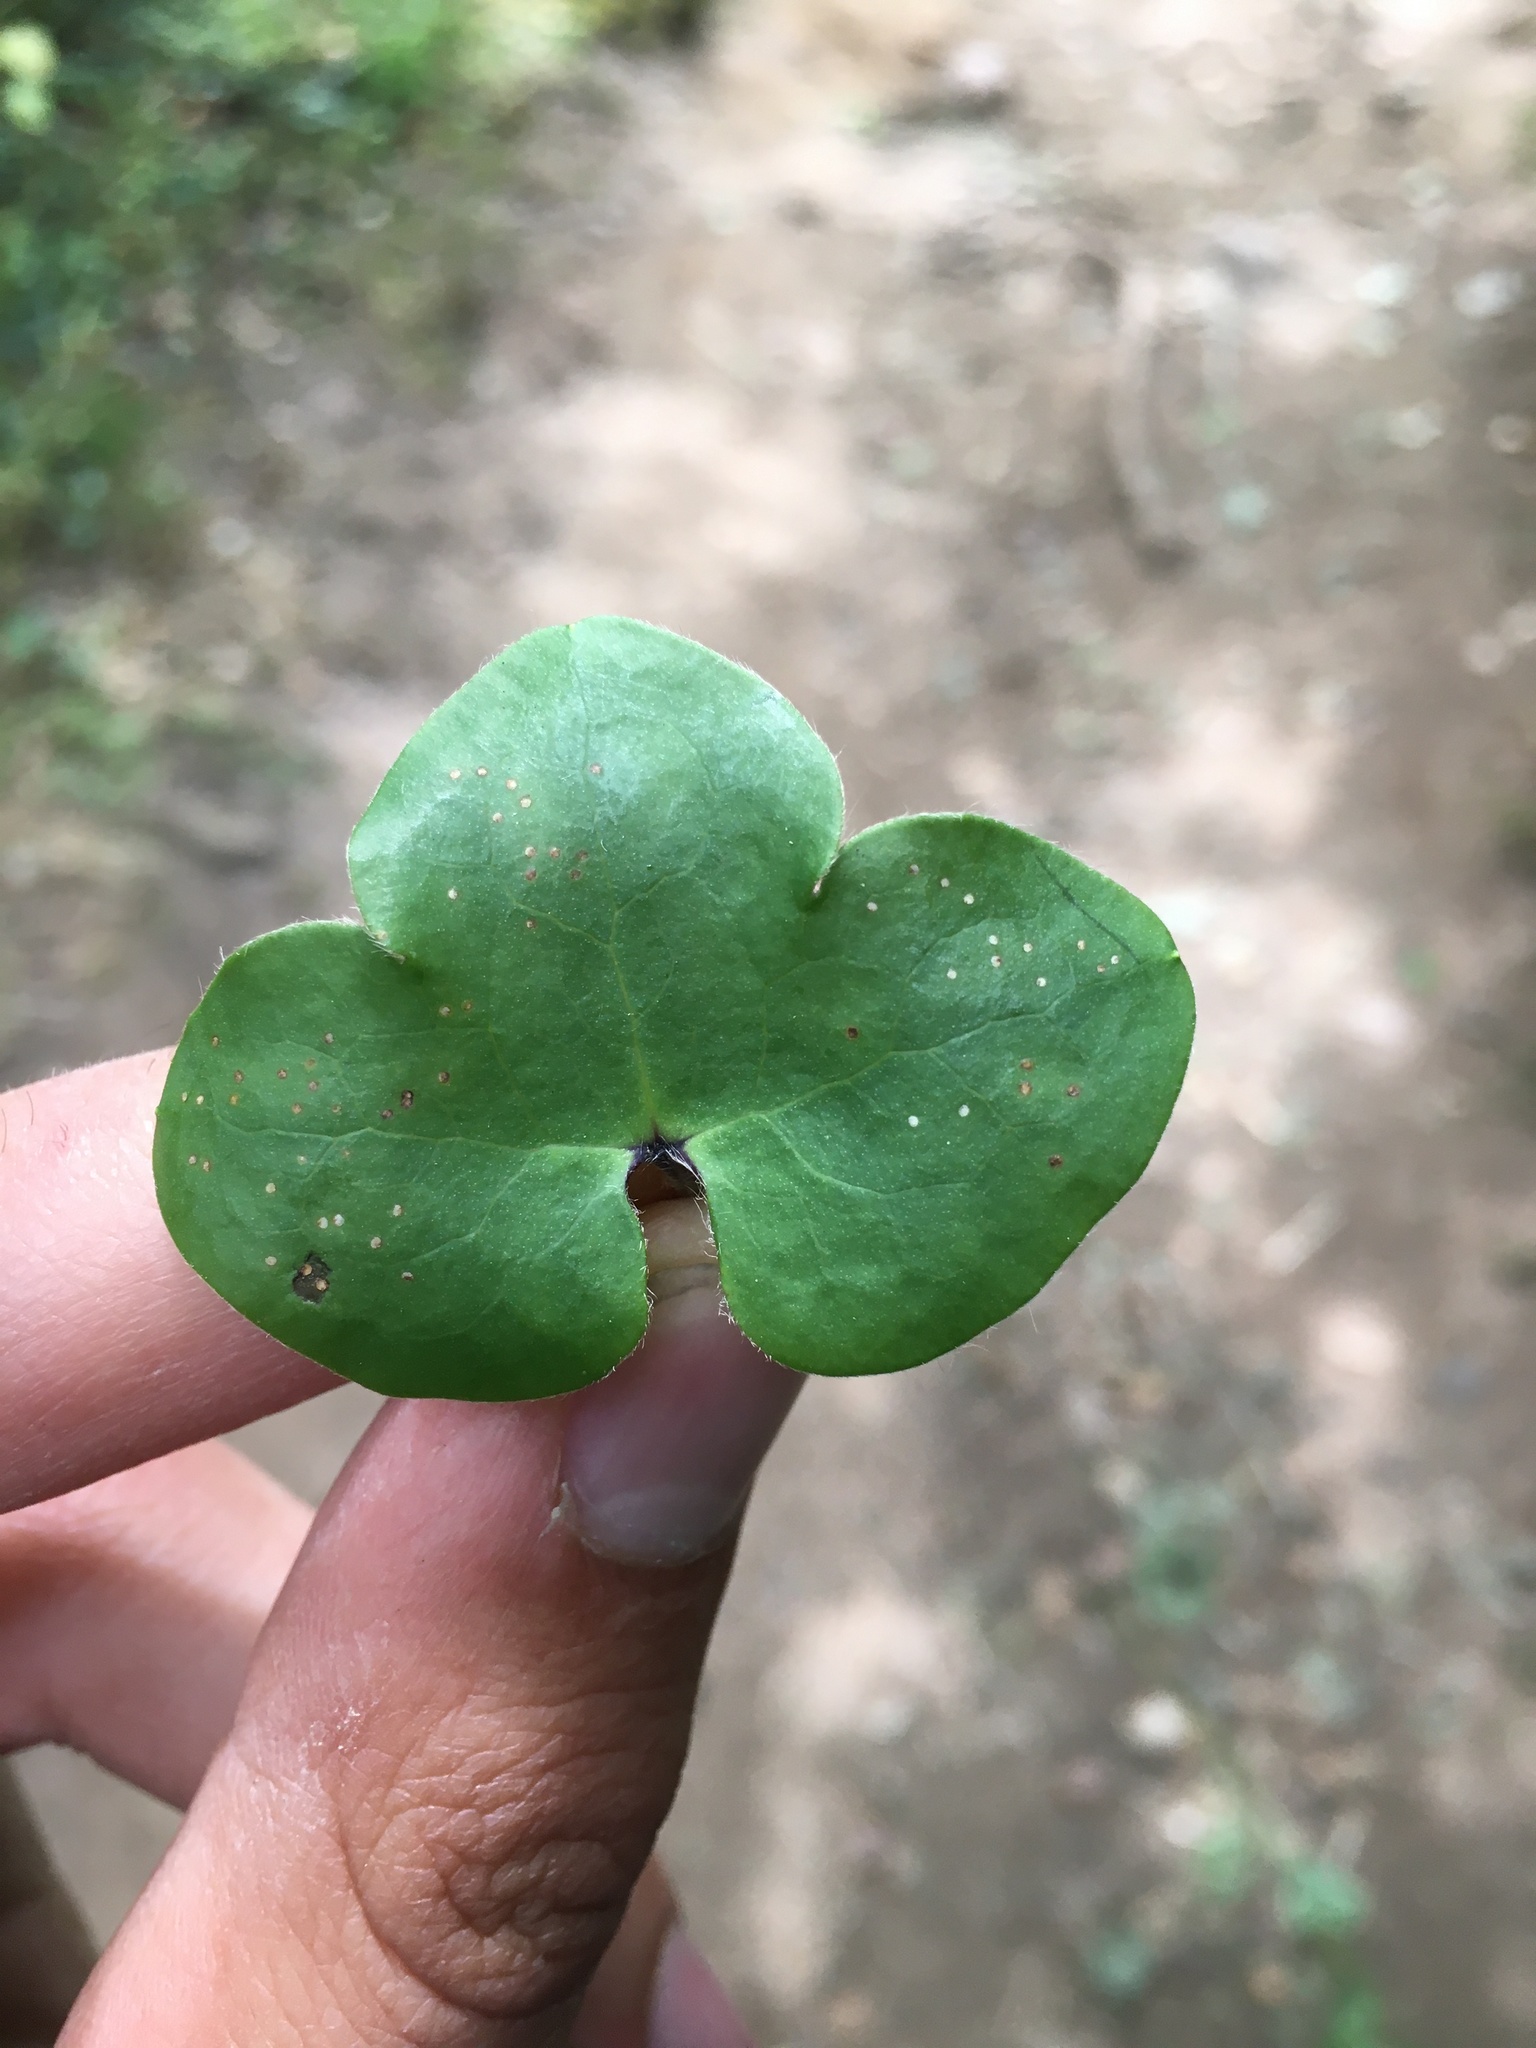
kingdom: Plantae
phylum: Tracheophyta
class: Magnoliopsida
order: Ranunculales
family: Ranunculaceae
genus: Hepatica
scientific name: Hepatica nobilis
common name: Liverleaf
